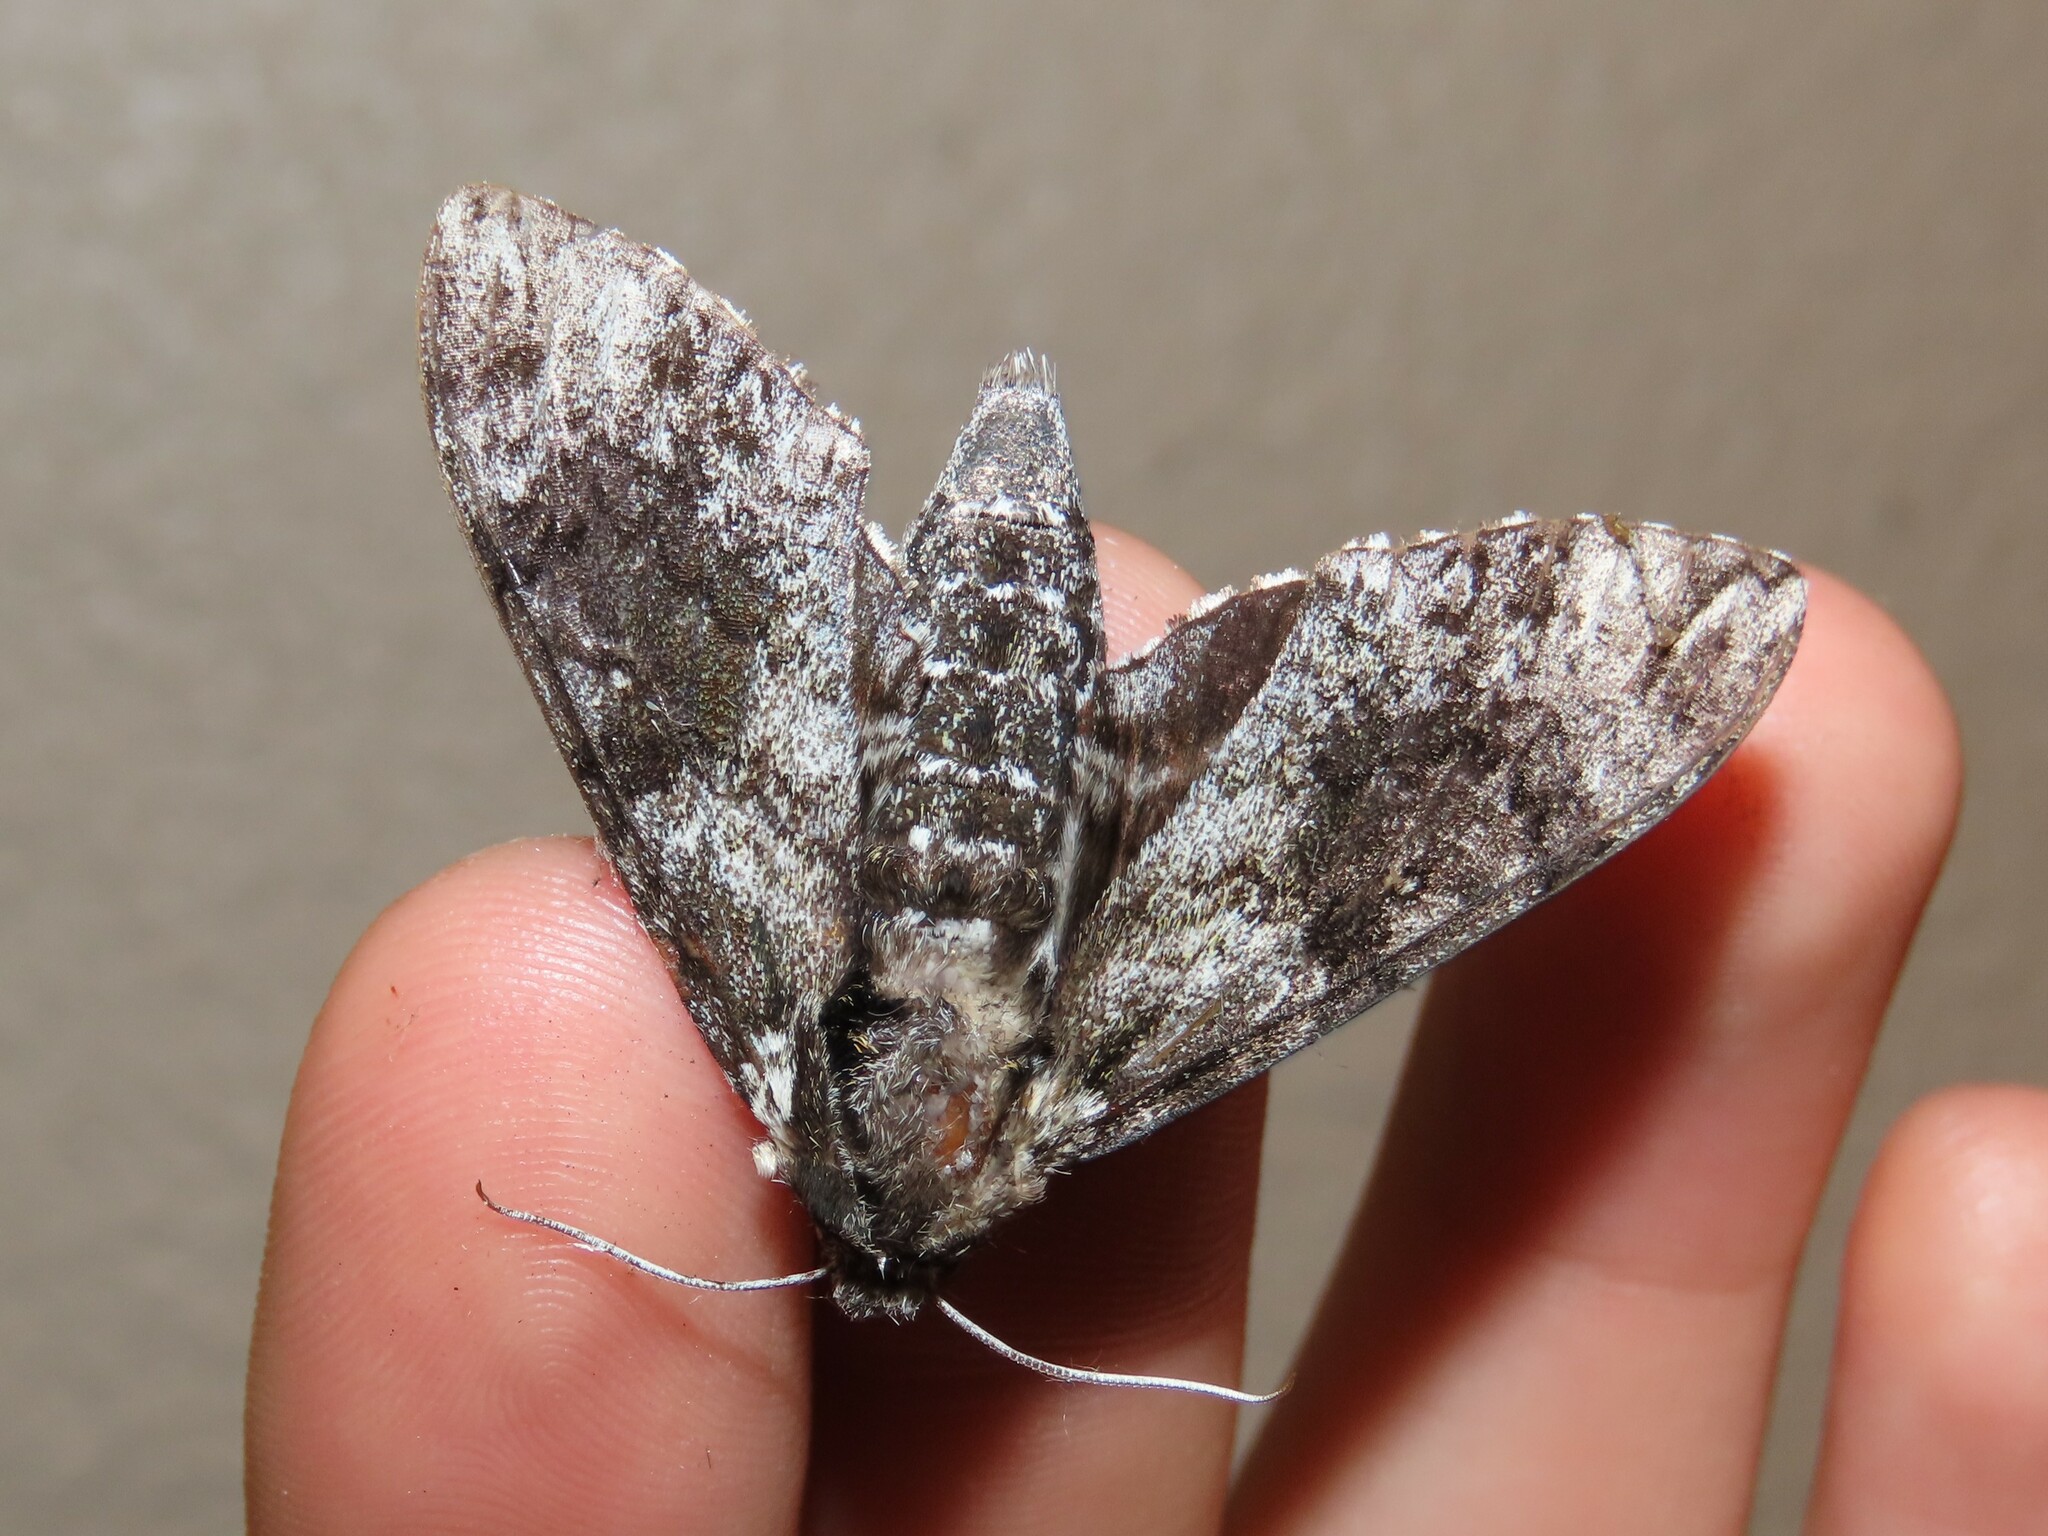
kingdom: Animalia
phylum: Arthropoda
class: Insecta
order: Lepidoptera
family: Sphingidae
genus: Dolba
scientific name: Dolba hyloeus
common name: Pawpaw sphinx
